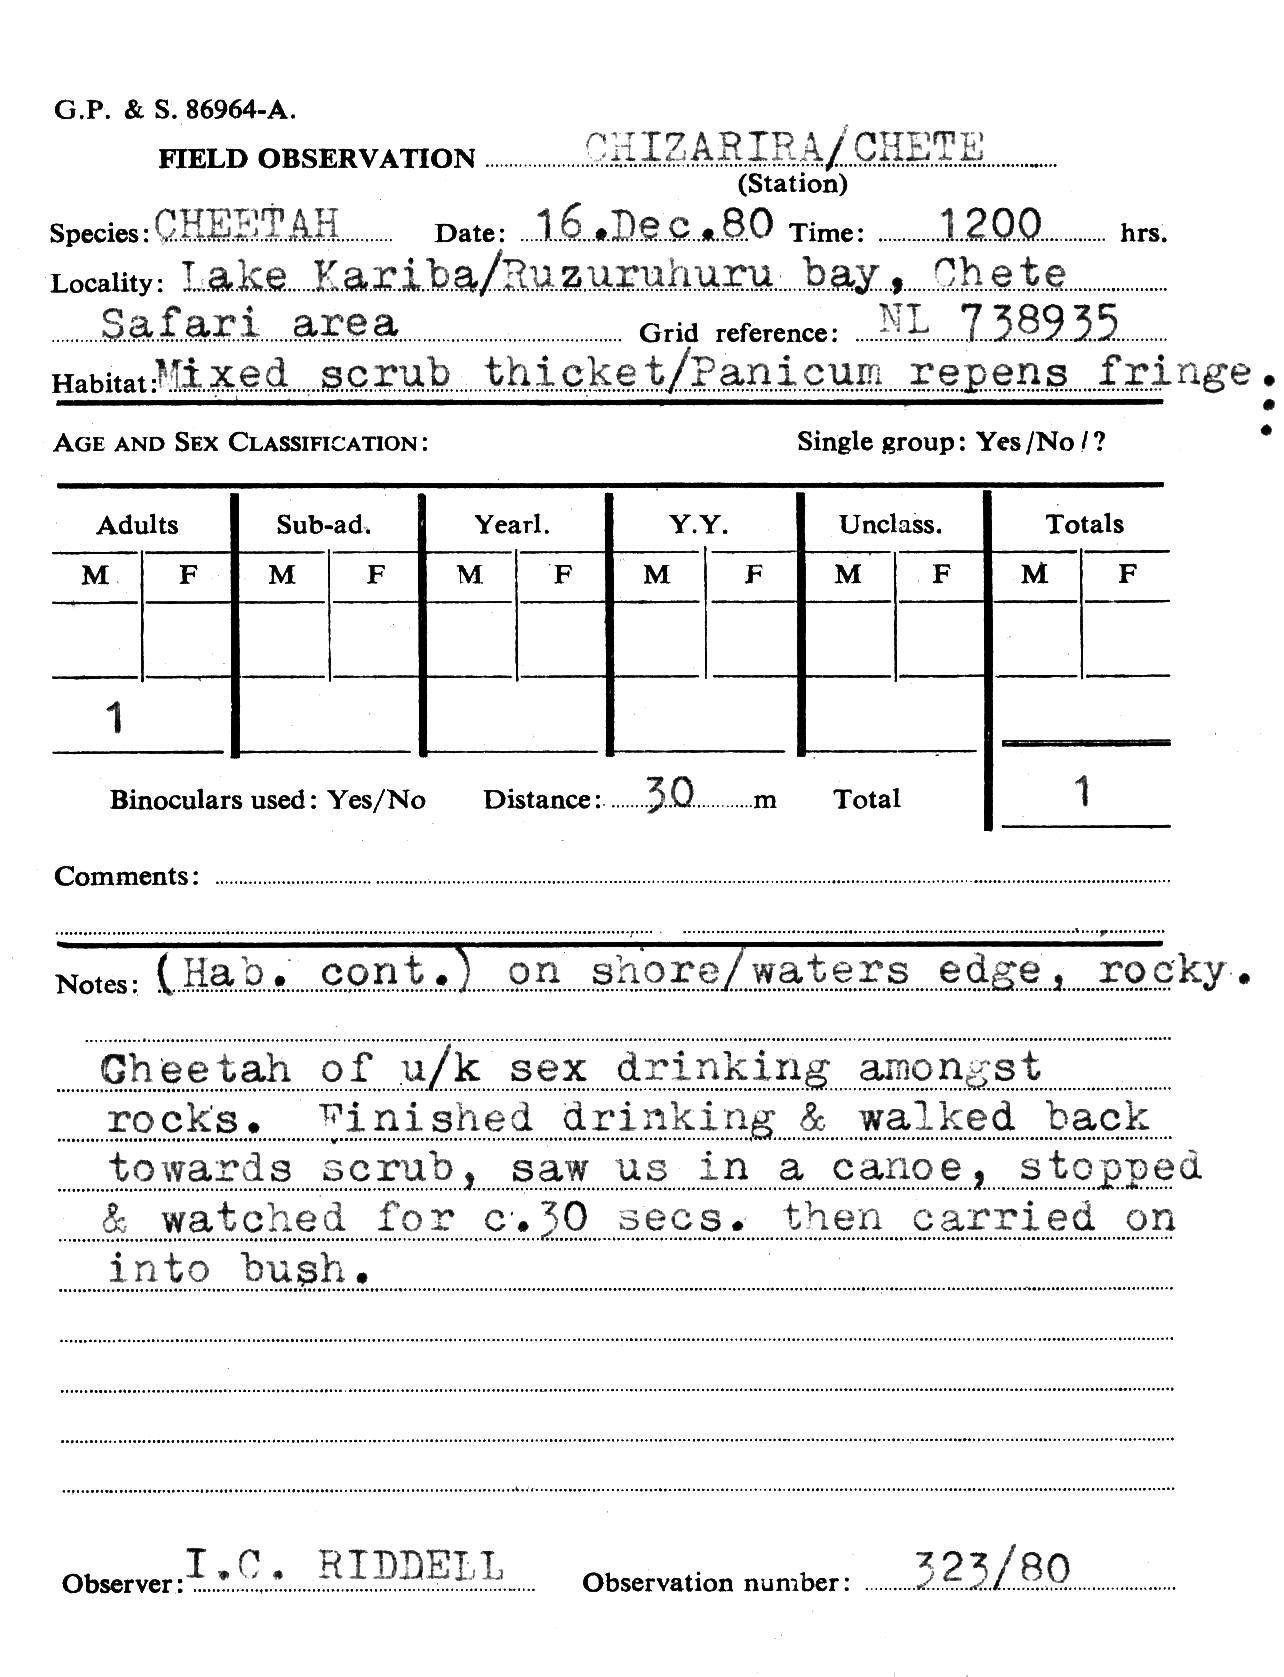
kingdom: Animalia
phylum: Chordata
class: Mammalia
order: Carnivora
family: Felidae
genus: Acinonyx
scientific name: Acinonyx jubatus
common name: Cheetah
